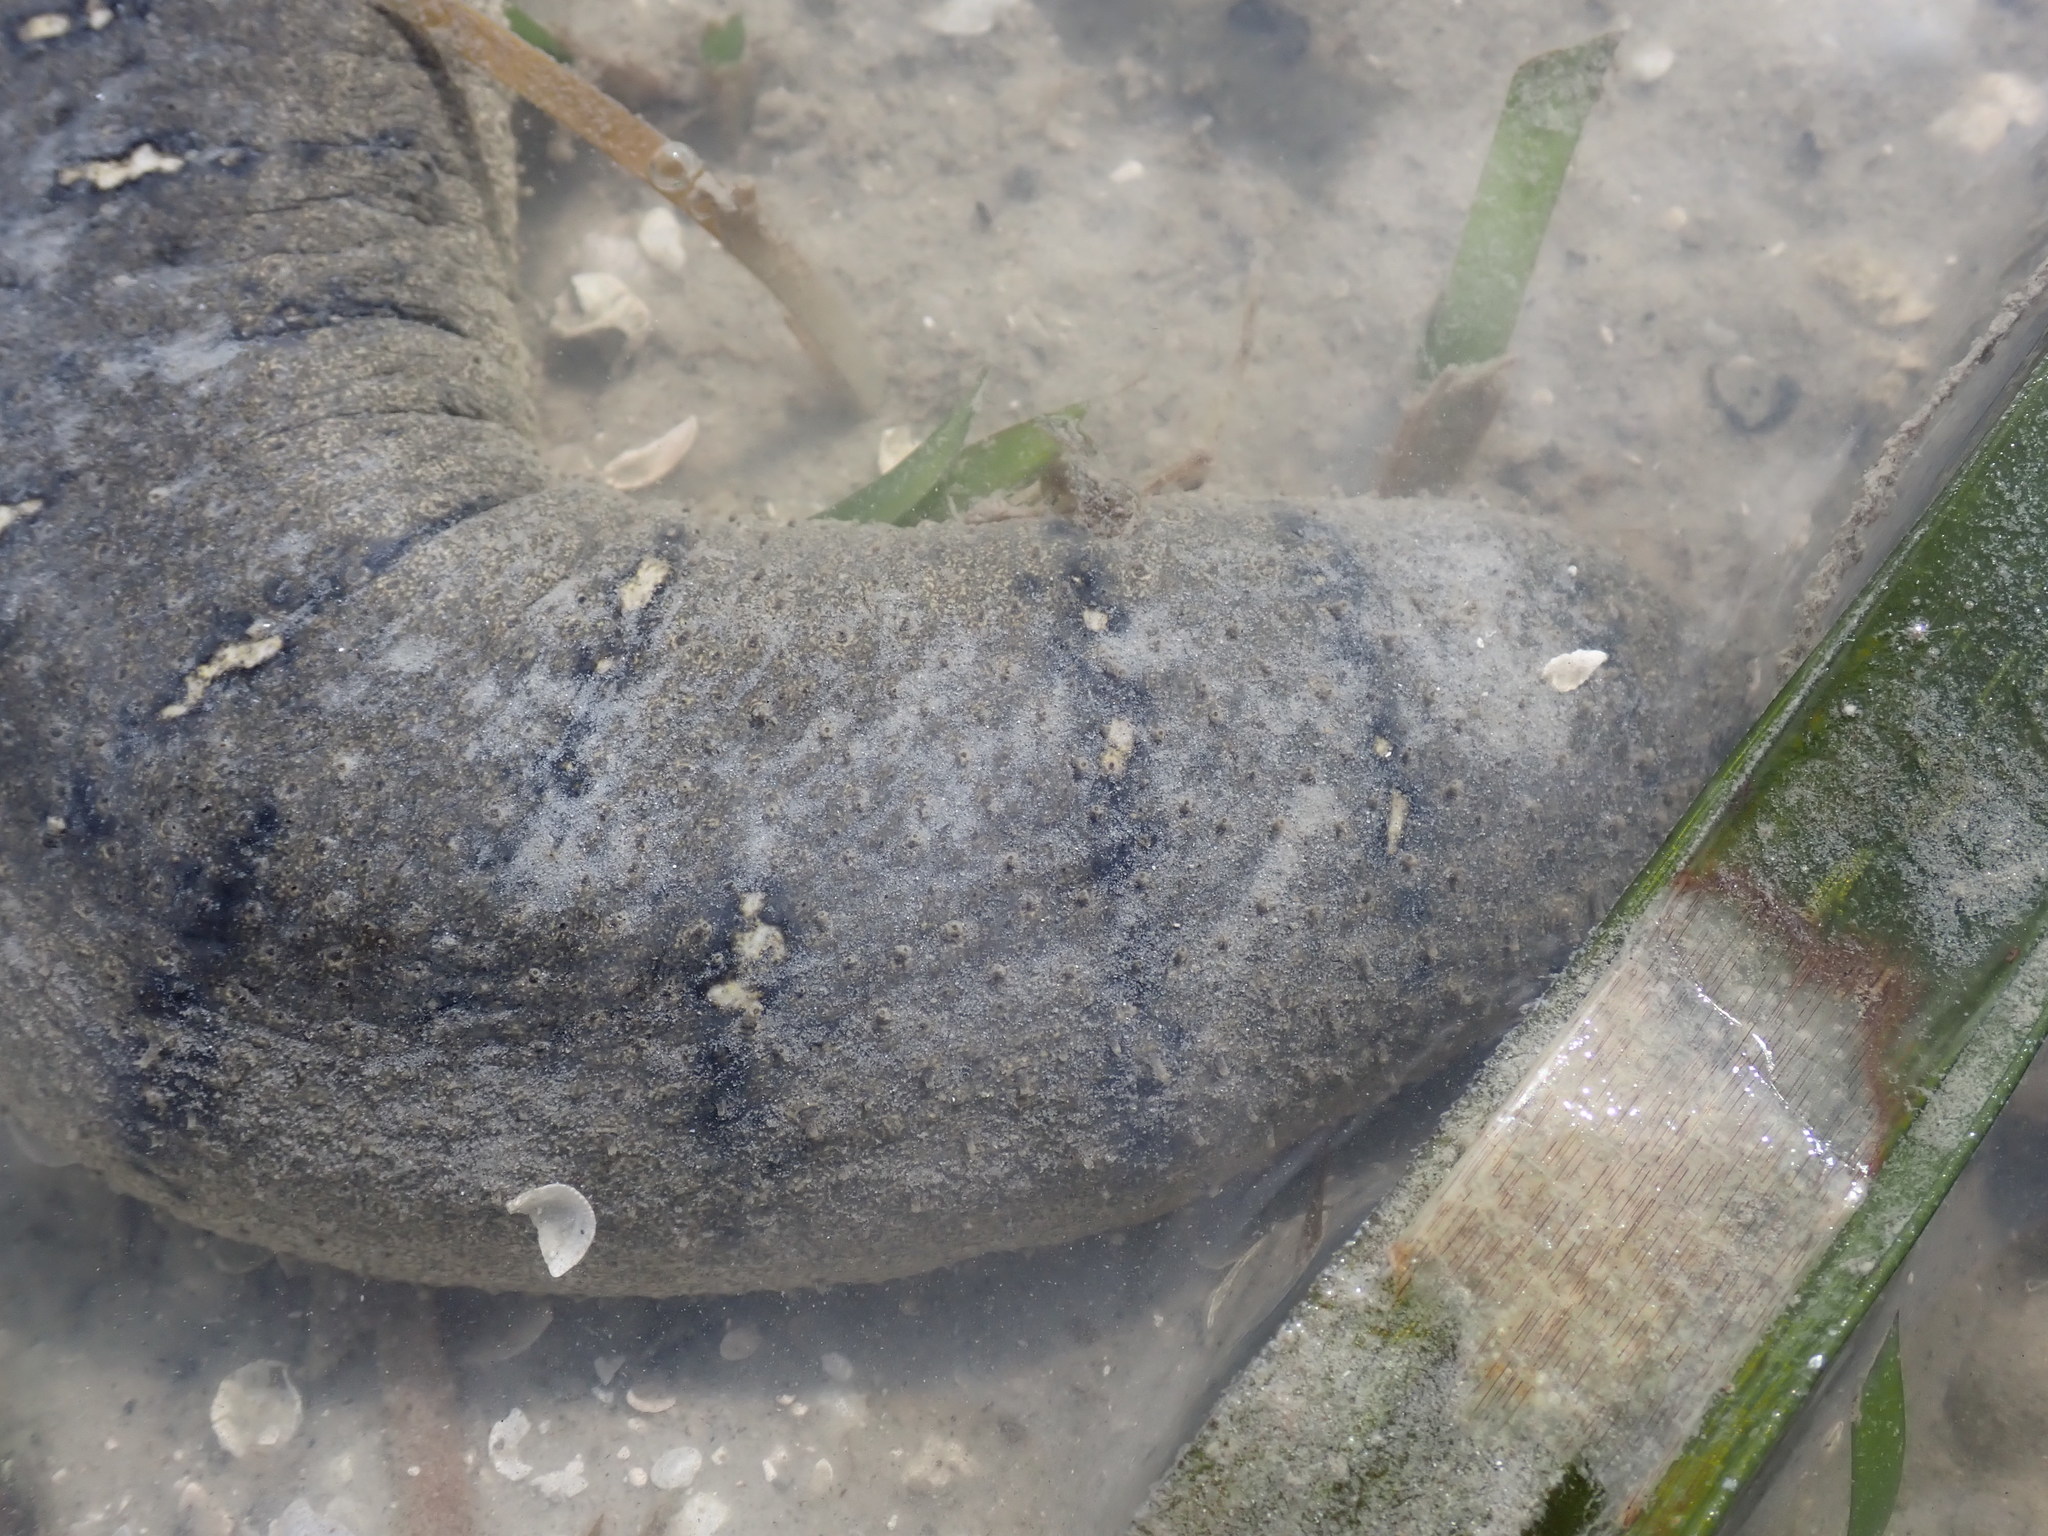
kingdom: Animalia
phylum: Echinodermata
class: Holothuroidea
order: Holothuriida
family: Holothuriidae
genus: Holothuria
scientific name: Holothuria scabra
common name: Golden sandfish
